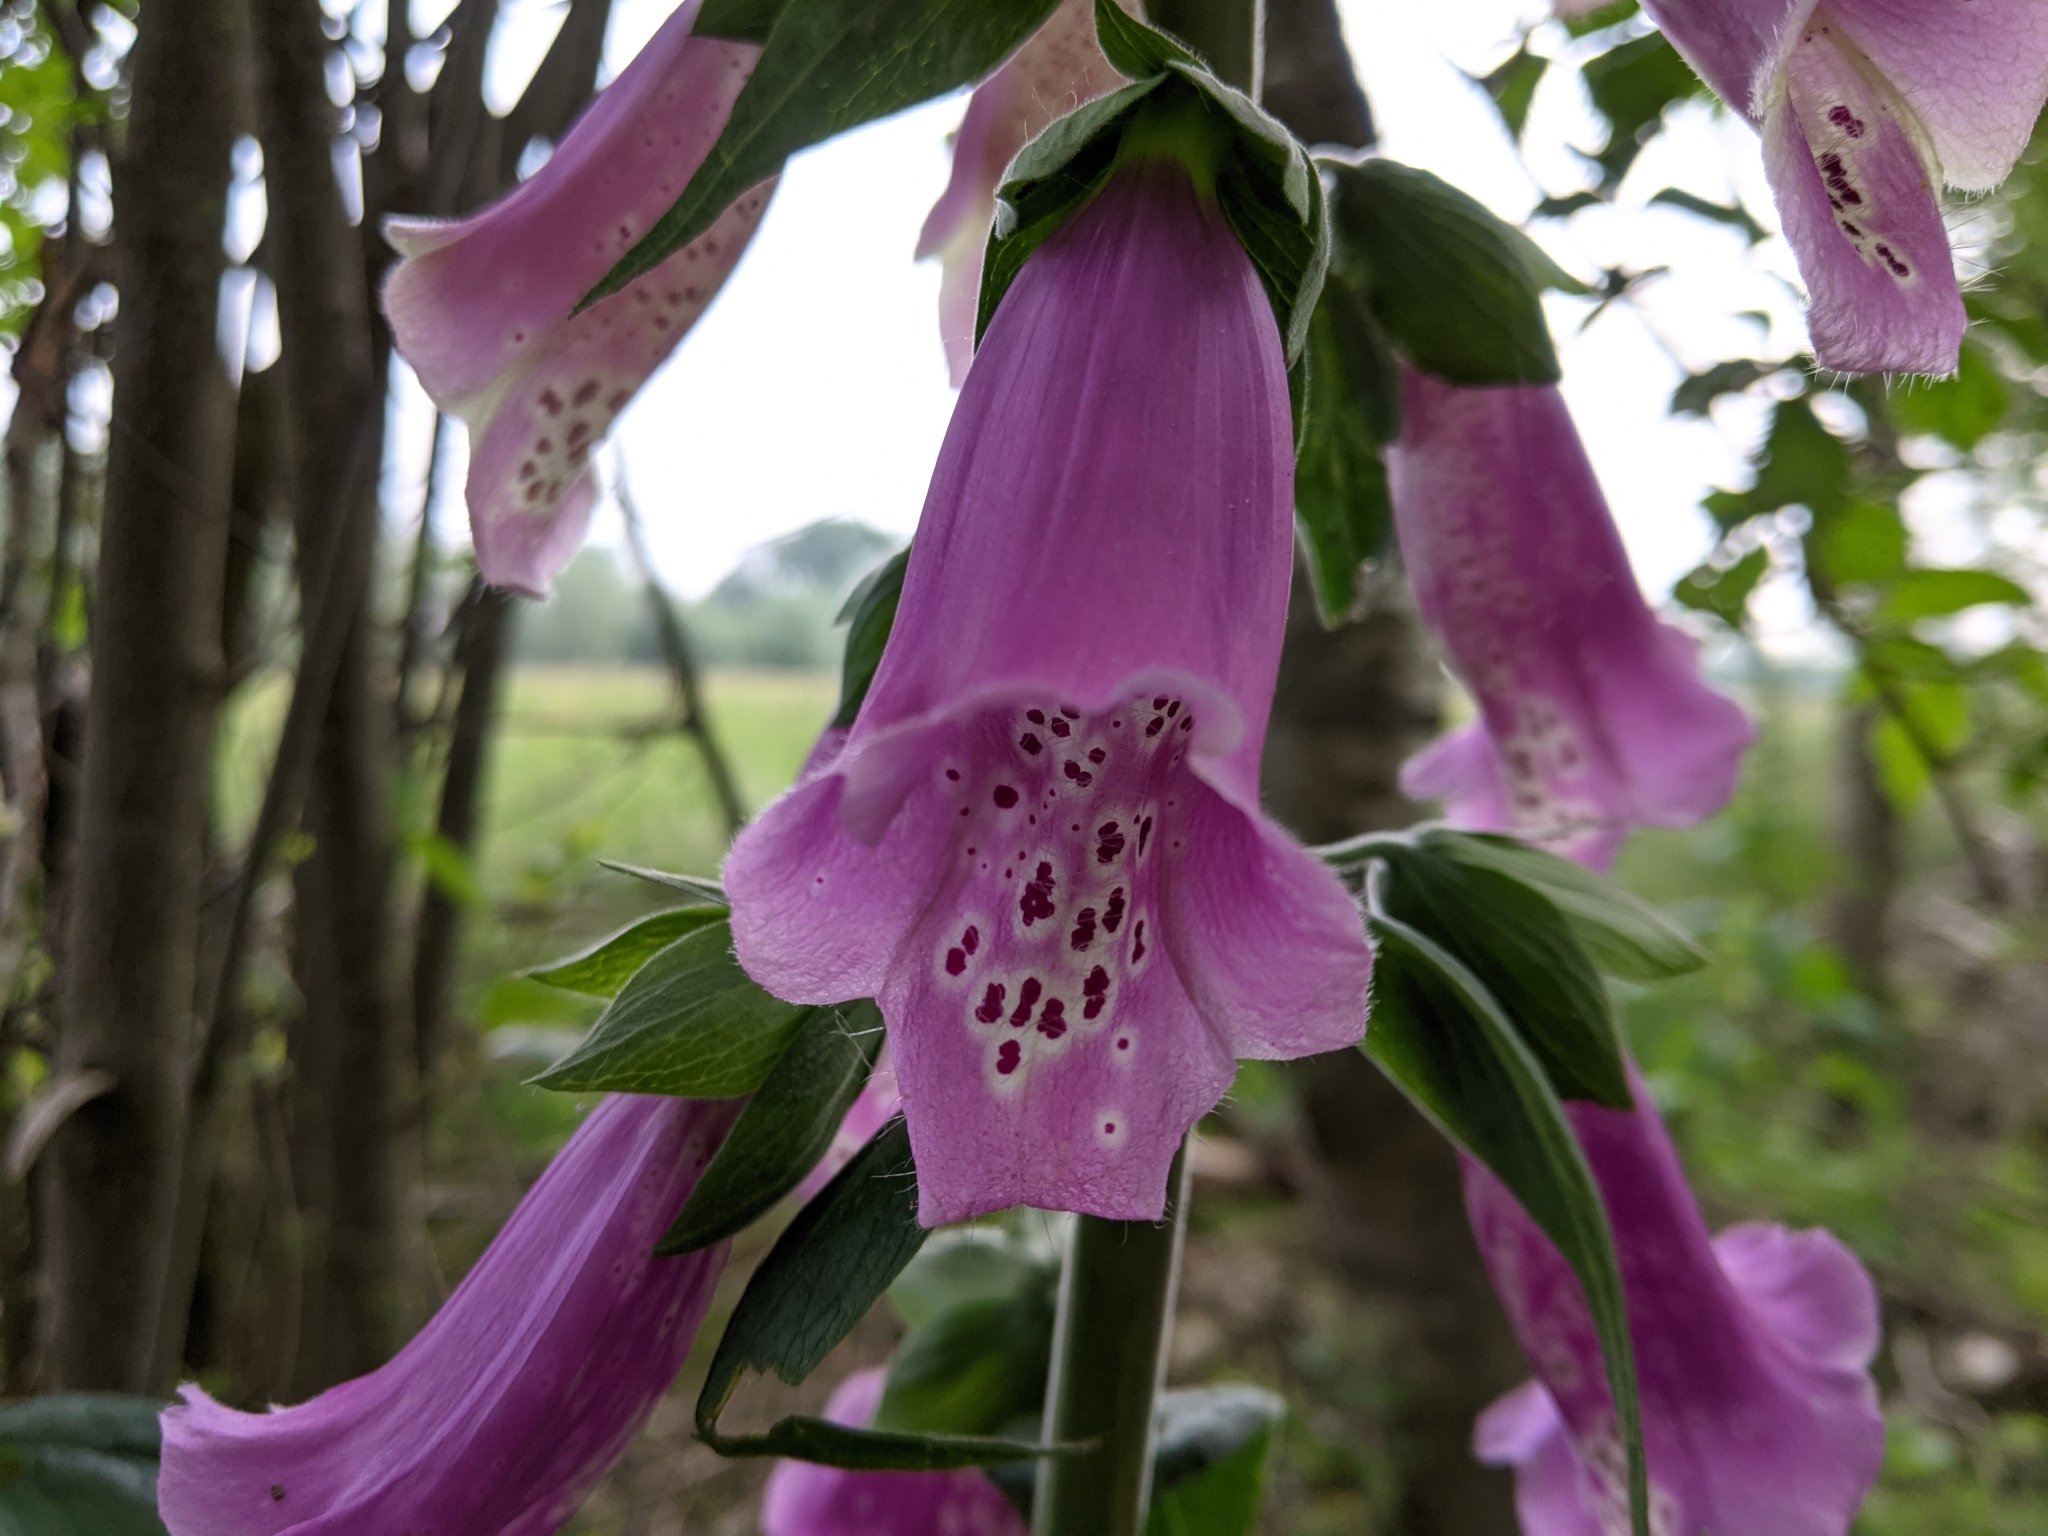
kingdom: Plantae
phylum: Tracheophyta
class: Magnoliopsida
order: Lamiales
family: Plantaginaceae
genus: Digitalis
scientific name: Digitalis purpurea
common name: Foxglove
